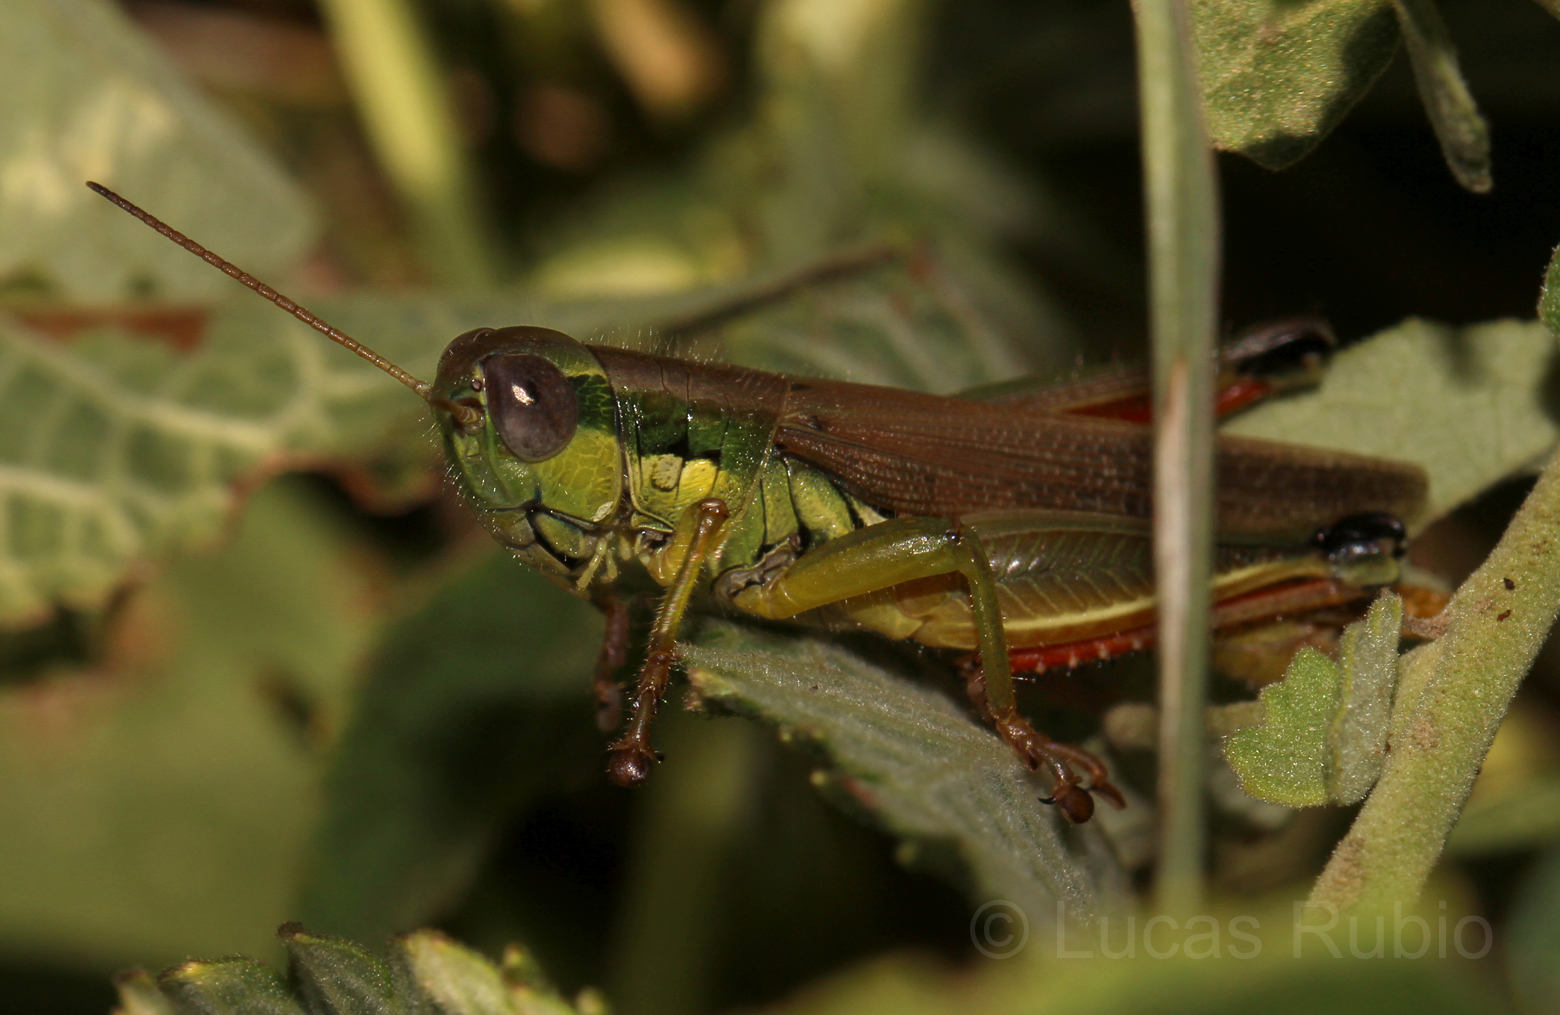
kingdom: Animalia
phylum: Arthropoda
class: Insecta
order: Orthoptera
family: Acrididae
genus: Leiotettix
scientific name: Leiotettix pulcher
